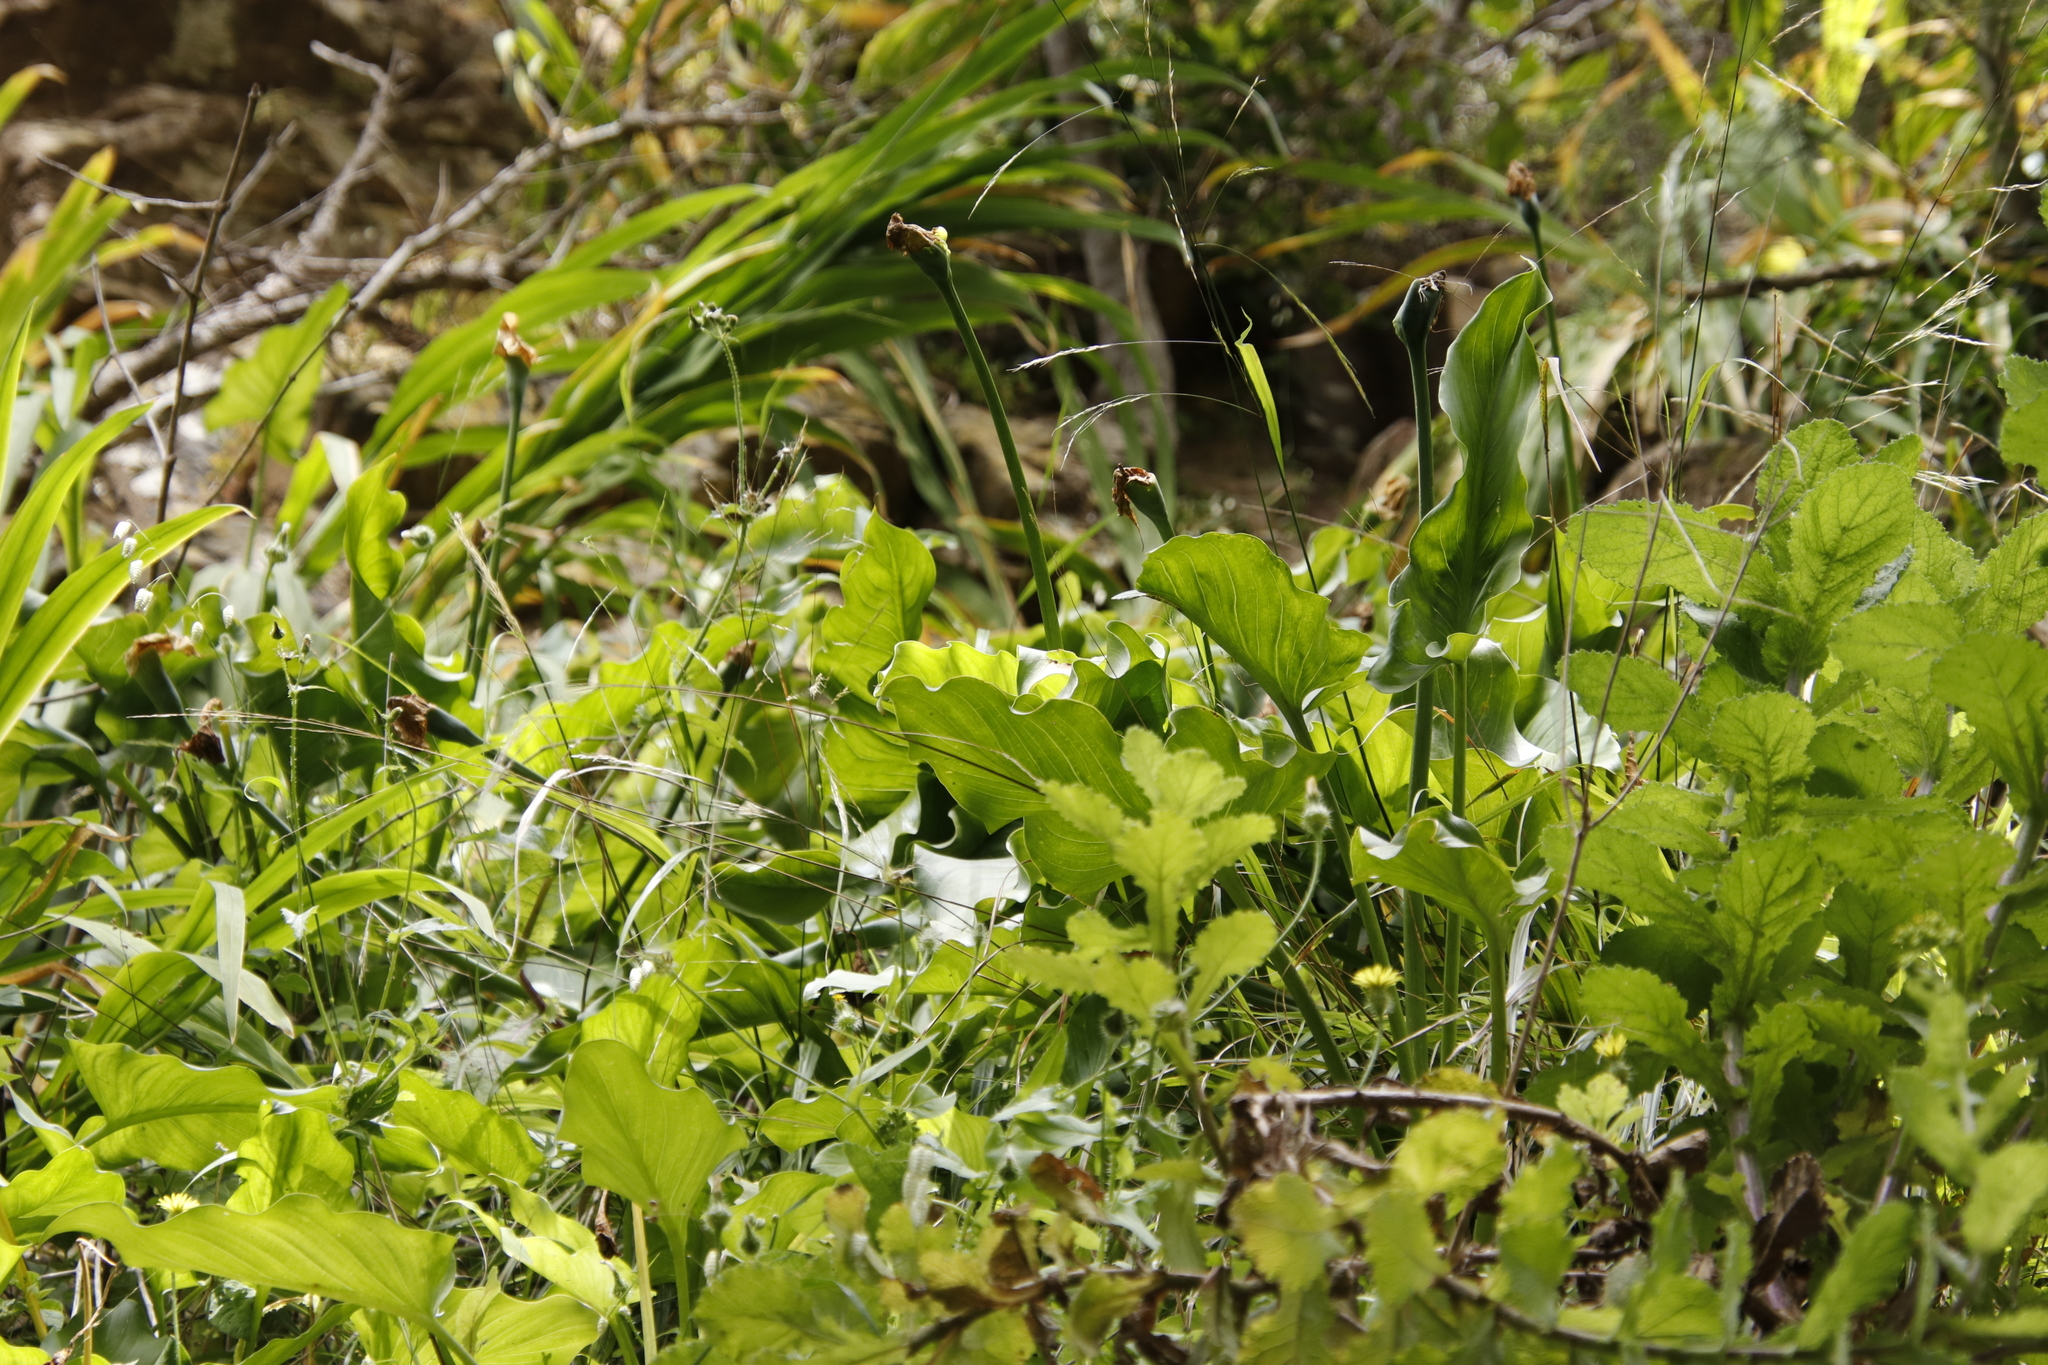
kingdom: Plantae
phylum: Tracheophyta
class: Liliopsida
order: Alismatales
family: Araceae
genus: Zantedeschia
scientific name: Zantedeschia aethiopica
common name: Altar-lily
